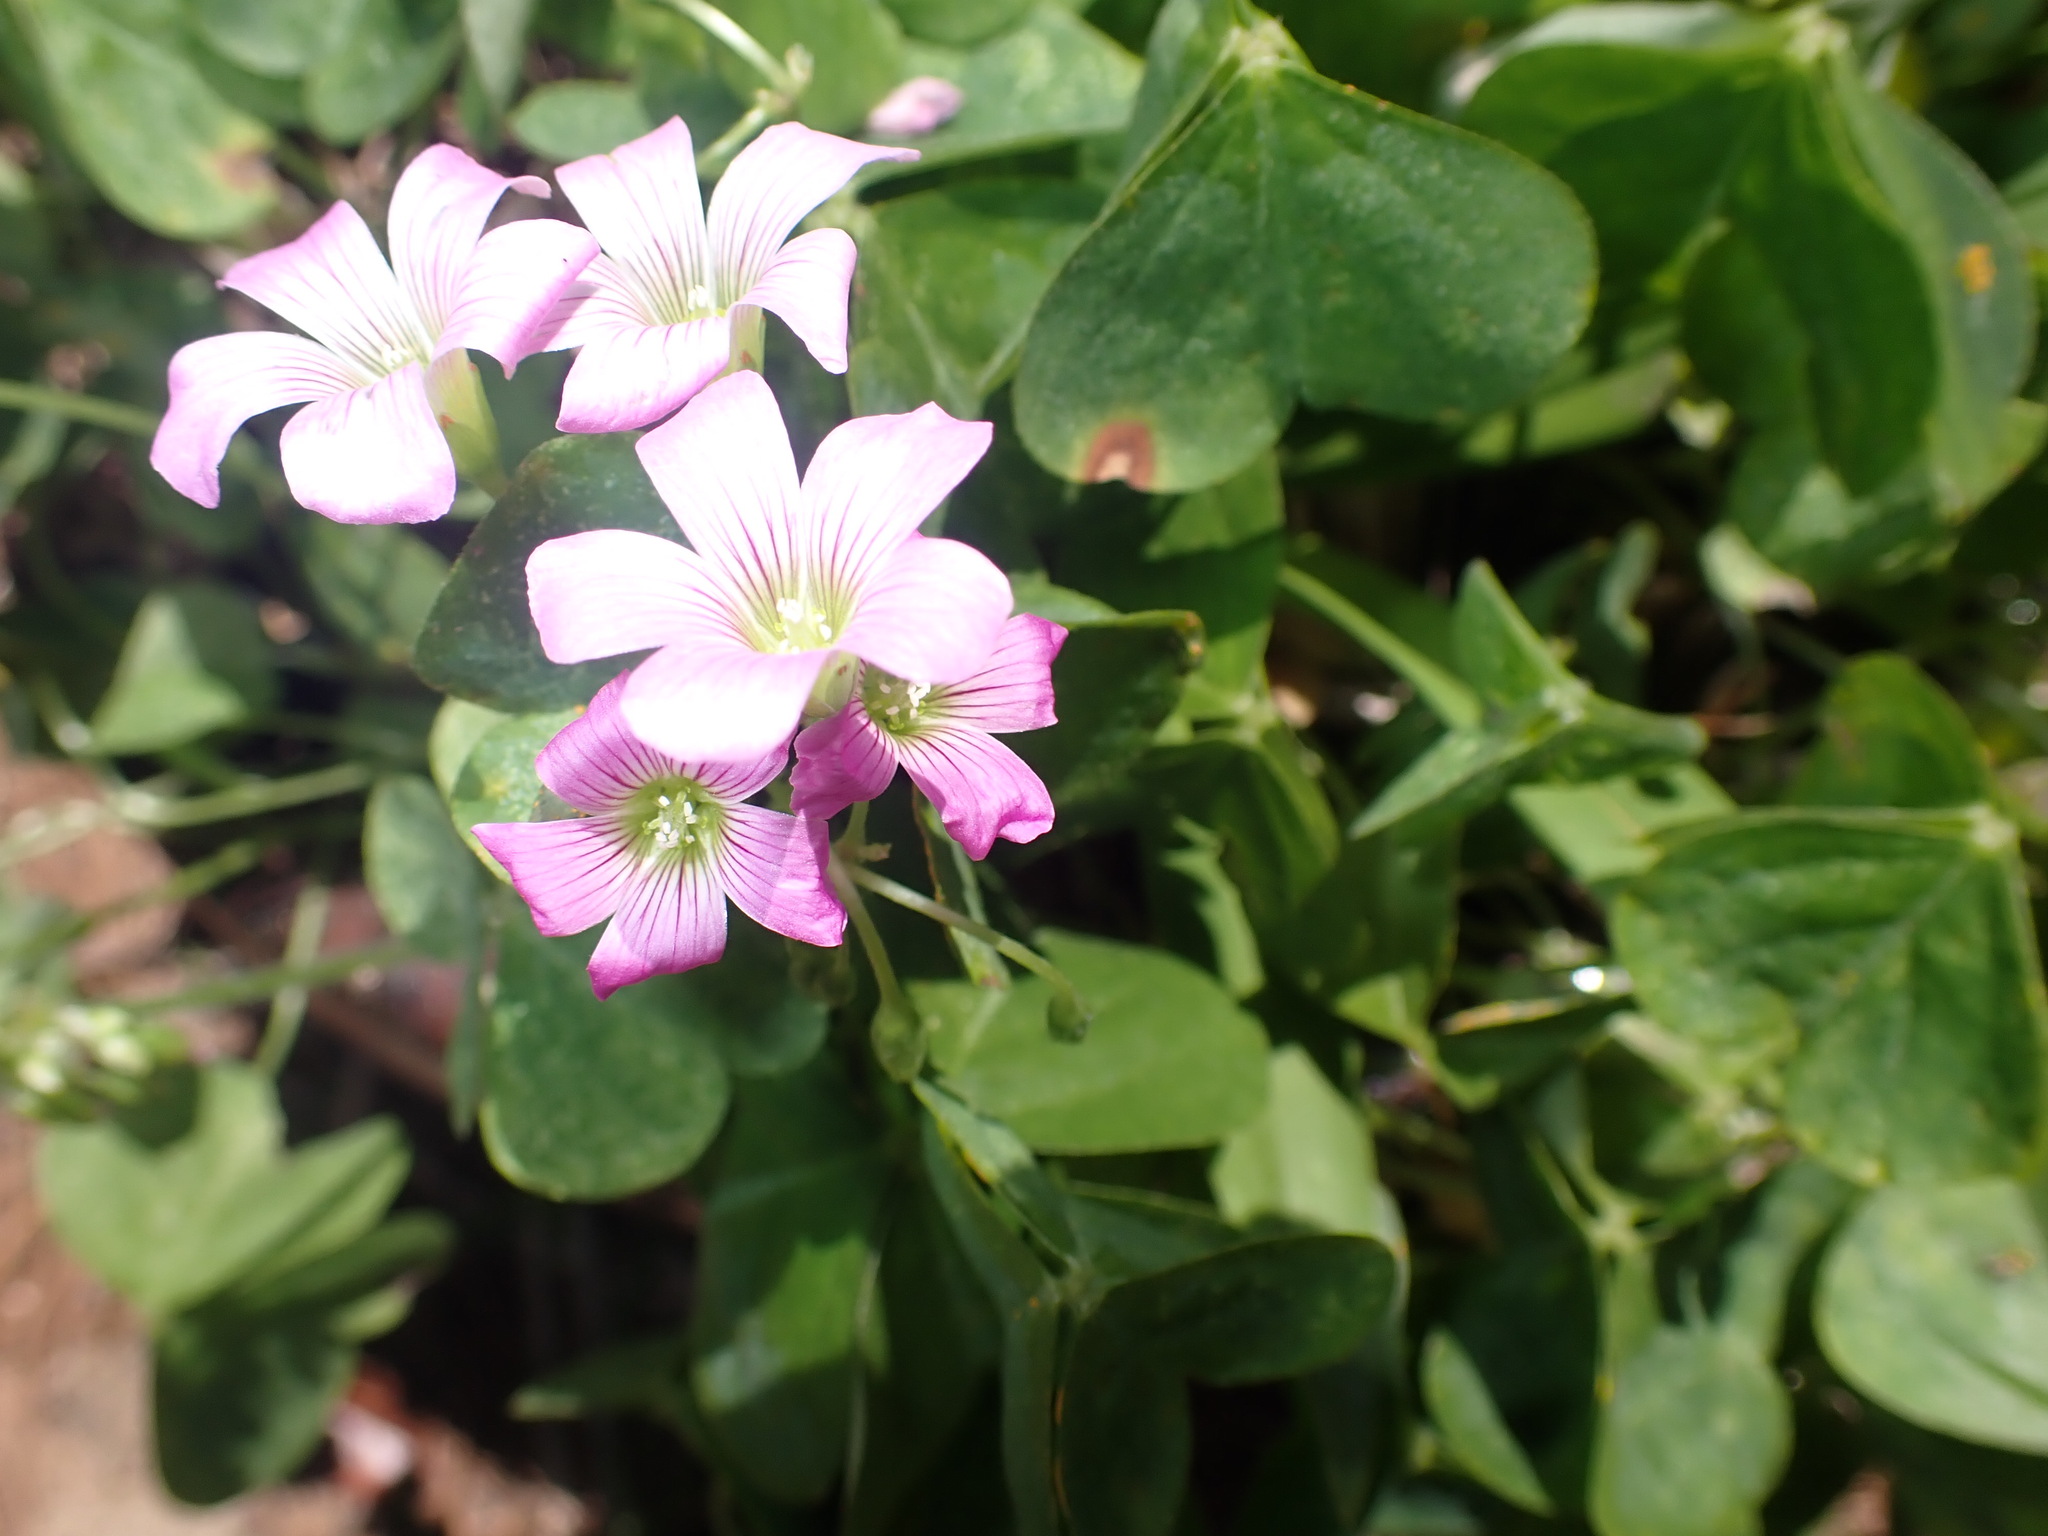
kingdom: Plantae
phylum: Tracheophyta
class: Magnoliopsida
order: Oxalidales
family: Oxalidaceae
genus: Oxalis
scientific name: Oxalis debilis
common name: Large-flowered pink-sorrel
